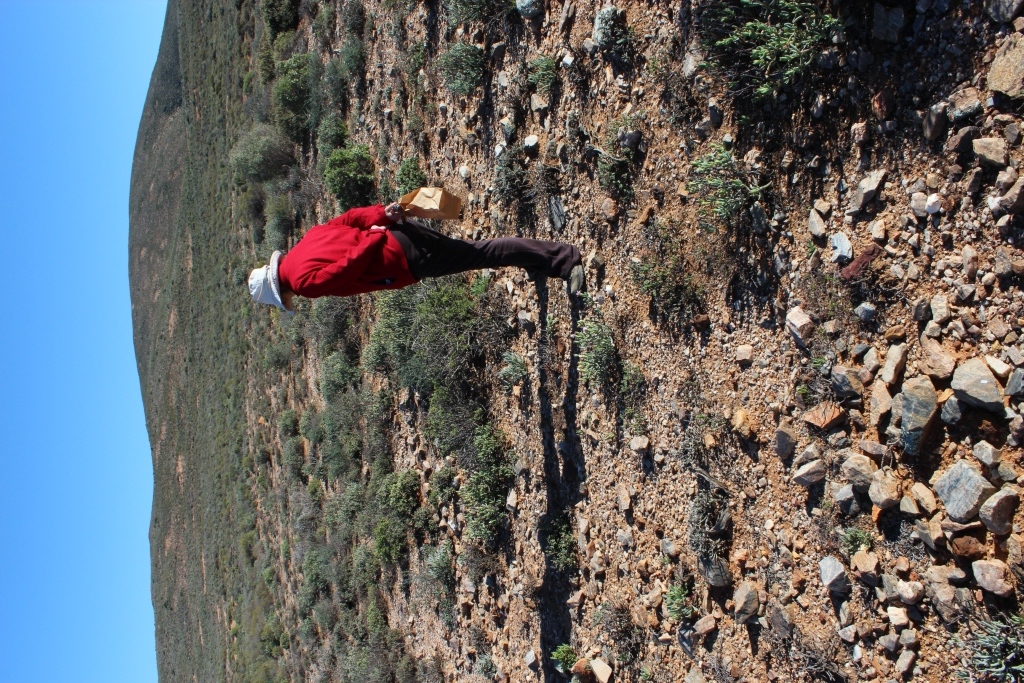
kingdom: Plantae
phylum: Tracheophyta
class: Magnoliopsida
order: Caryophyllales
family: Aizoaceae
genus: Lampranthus
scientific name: Lampranthus watermeyeri
